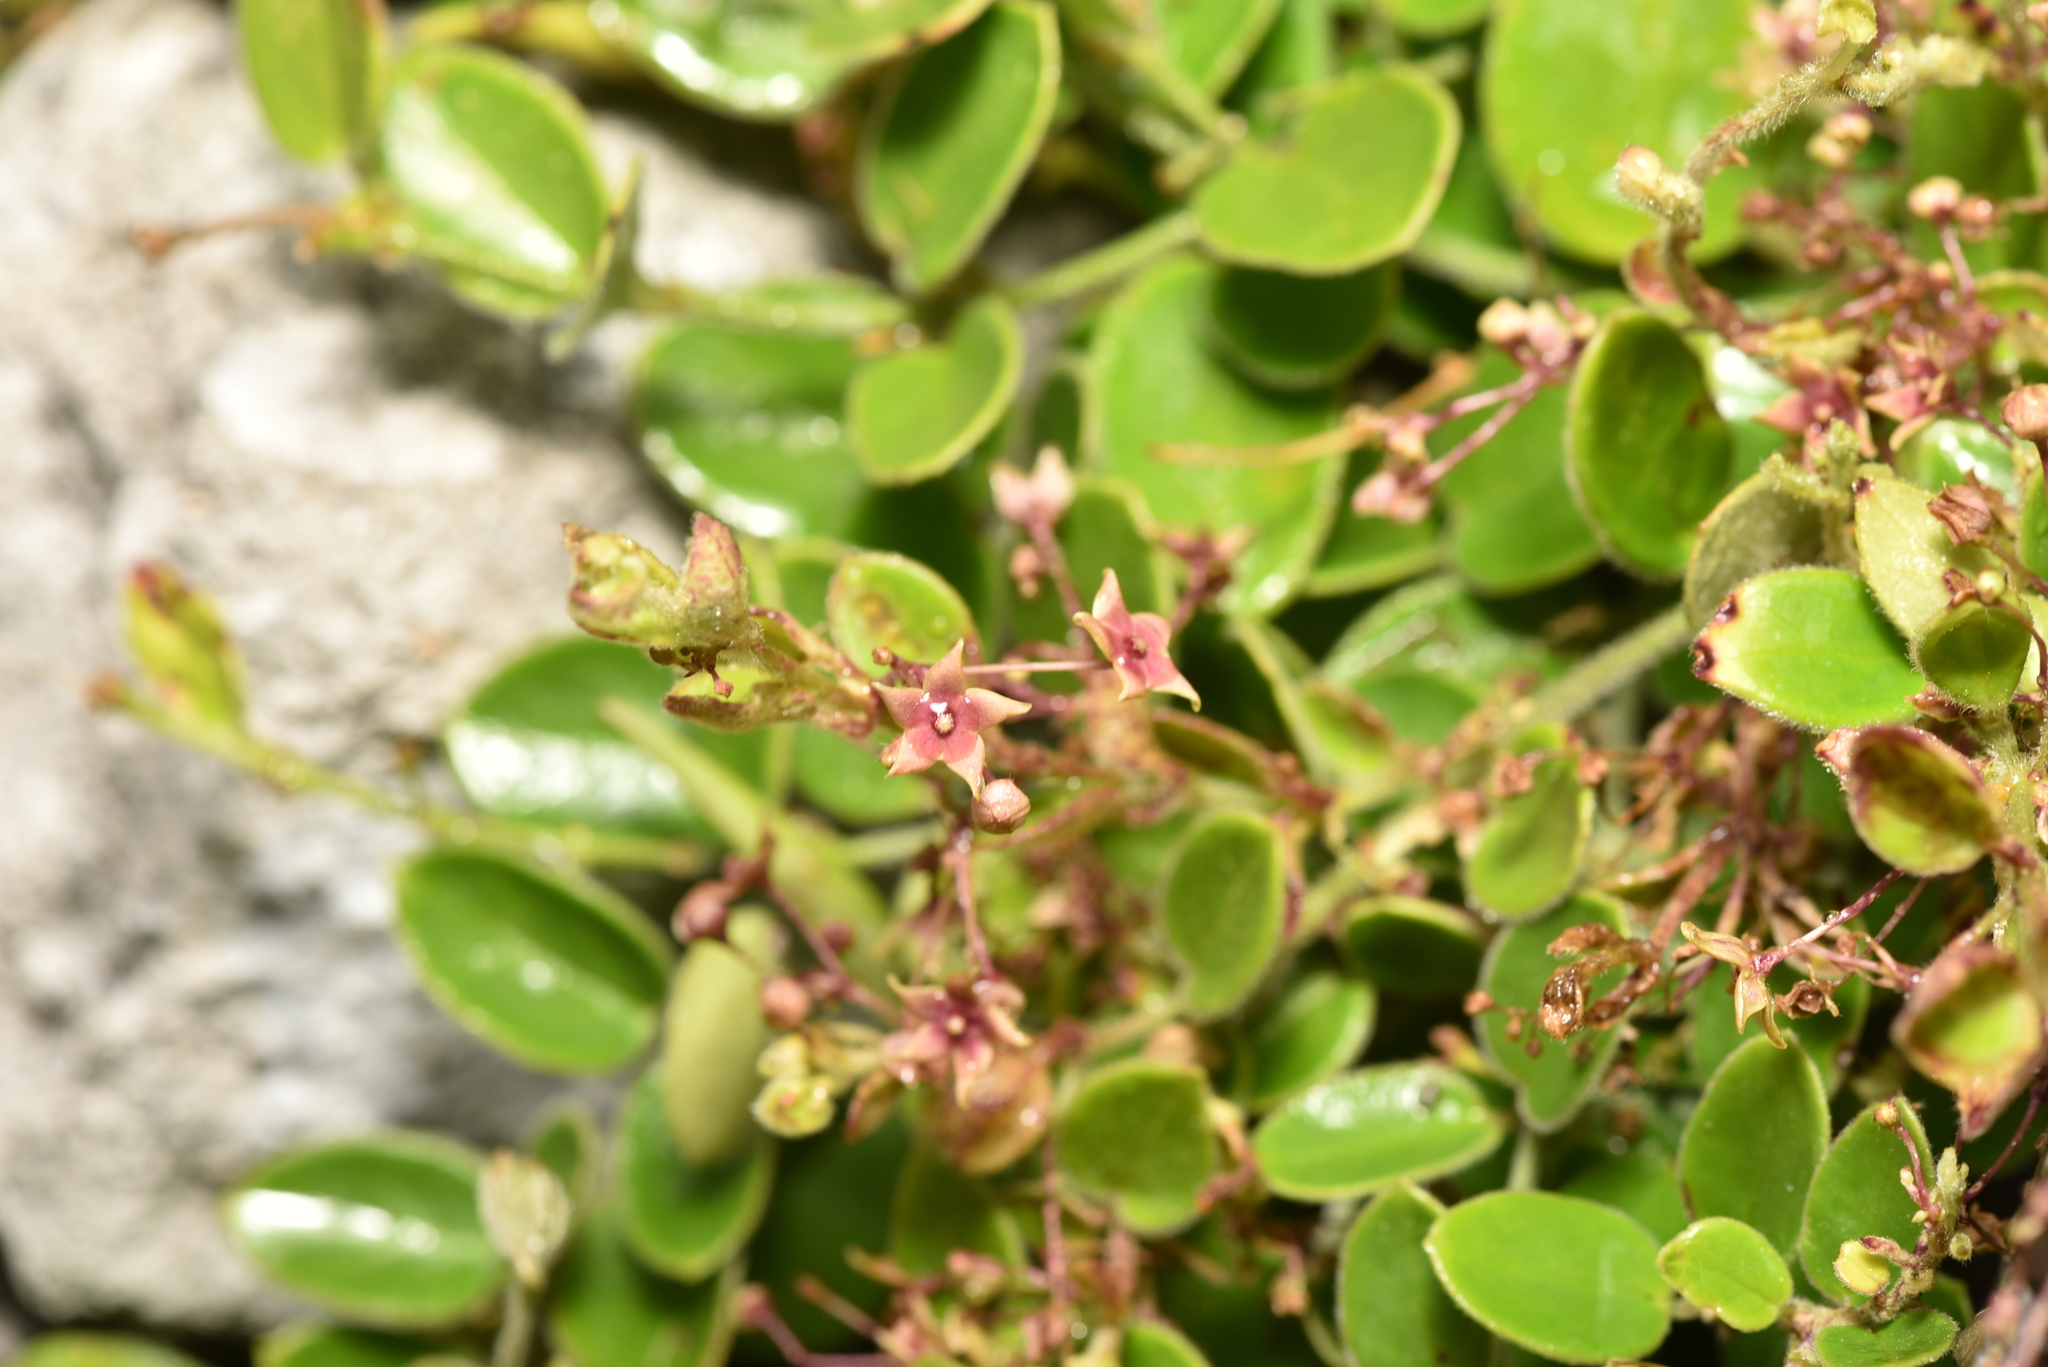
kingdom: Plantae
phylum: Tracheophyta
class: Magnoliopsida
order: Gentianales
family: Apocynaceae
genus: Vincetoxicum
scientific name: Vincetoxicum hirsutum
